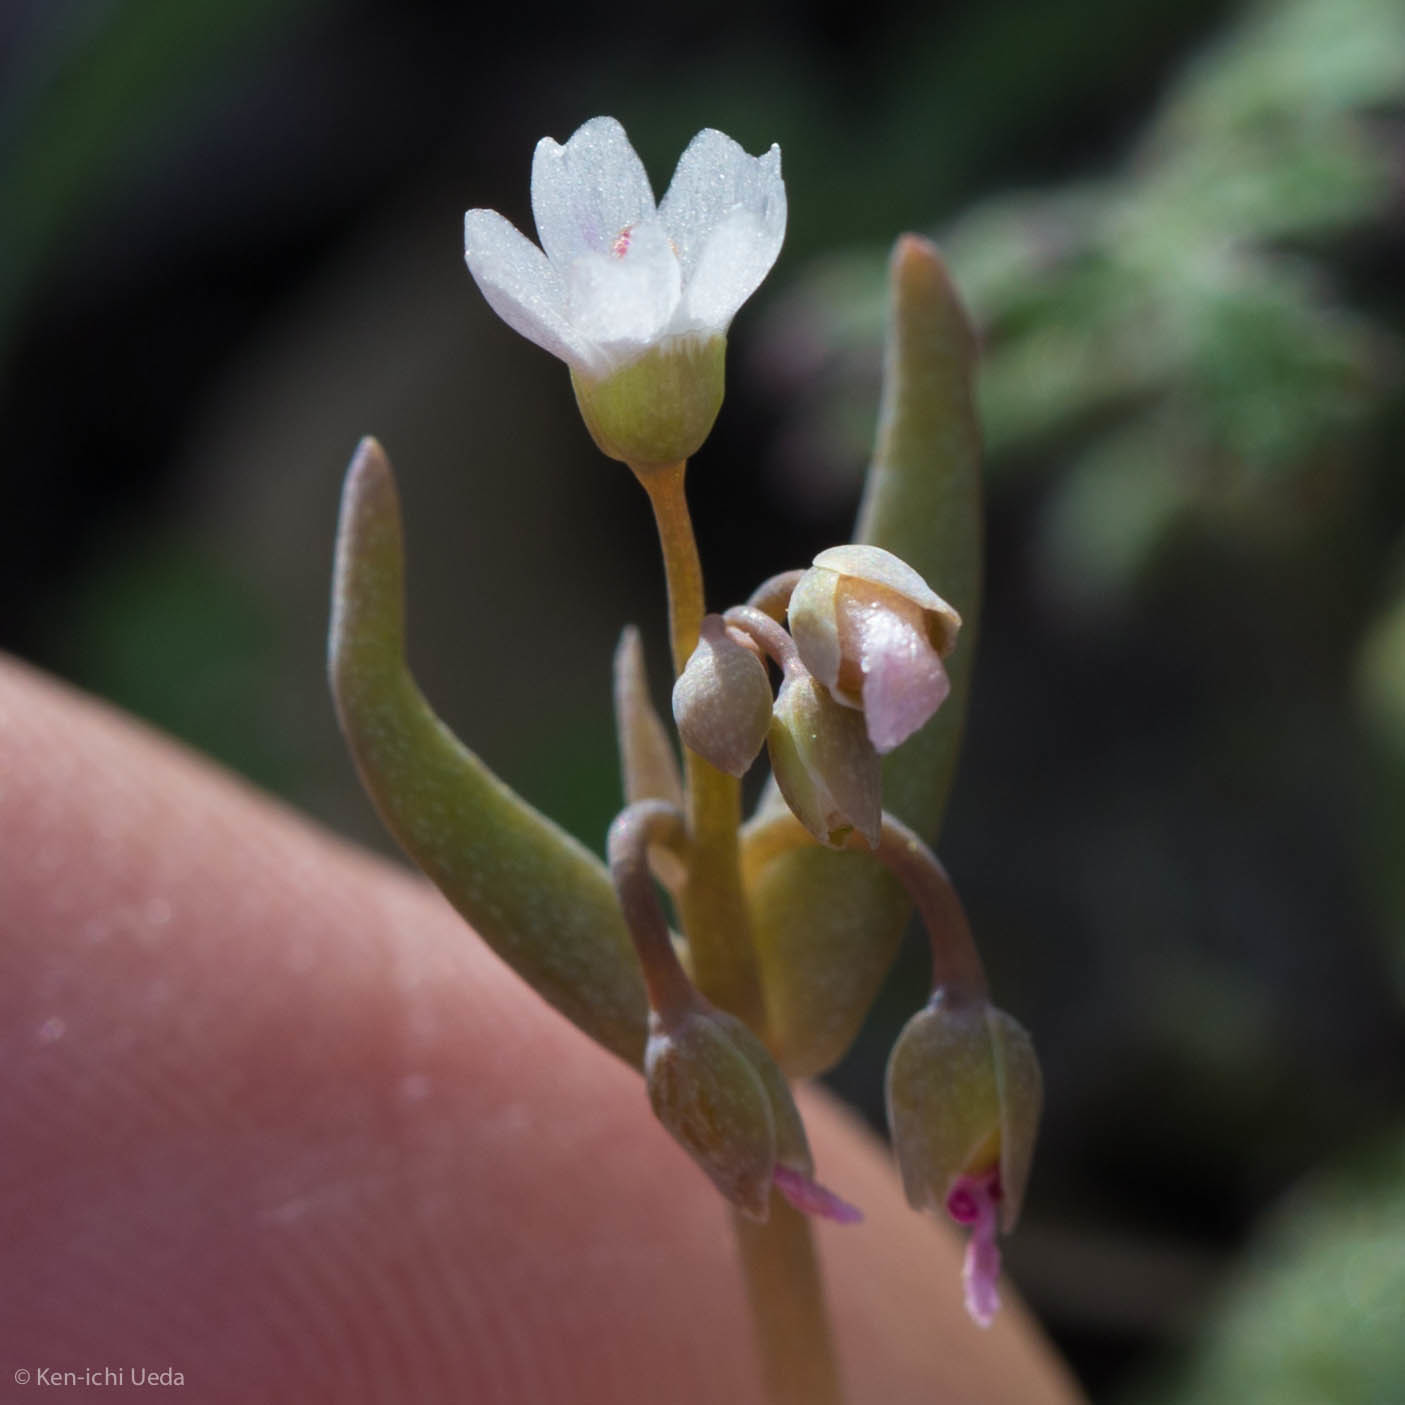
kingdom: Plantae
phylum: Tracheophyta
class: Magnoliopsida
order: Caryophyllales
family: Montiaceae
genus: Claytonia
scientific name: Claytonia exigua
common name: Pale spring beauty
